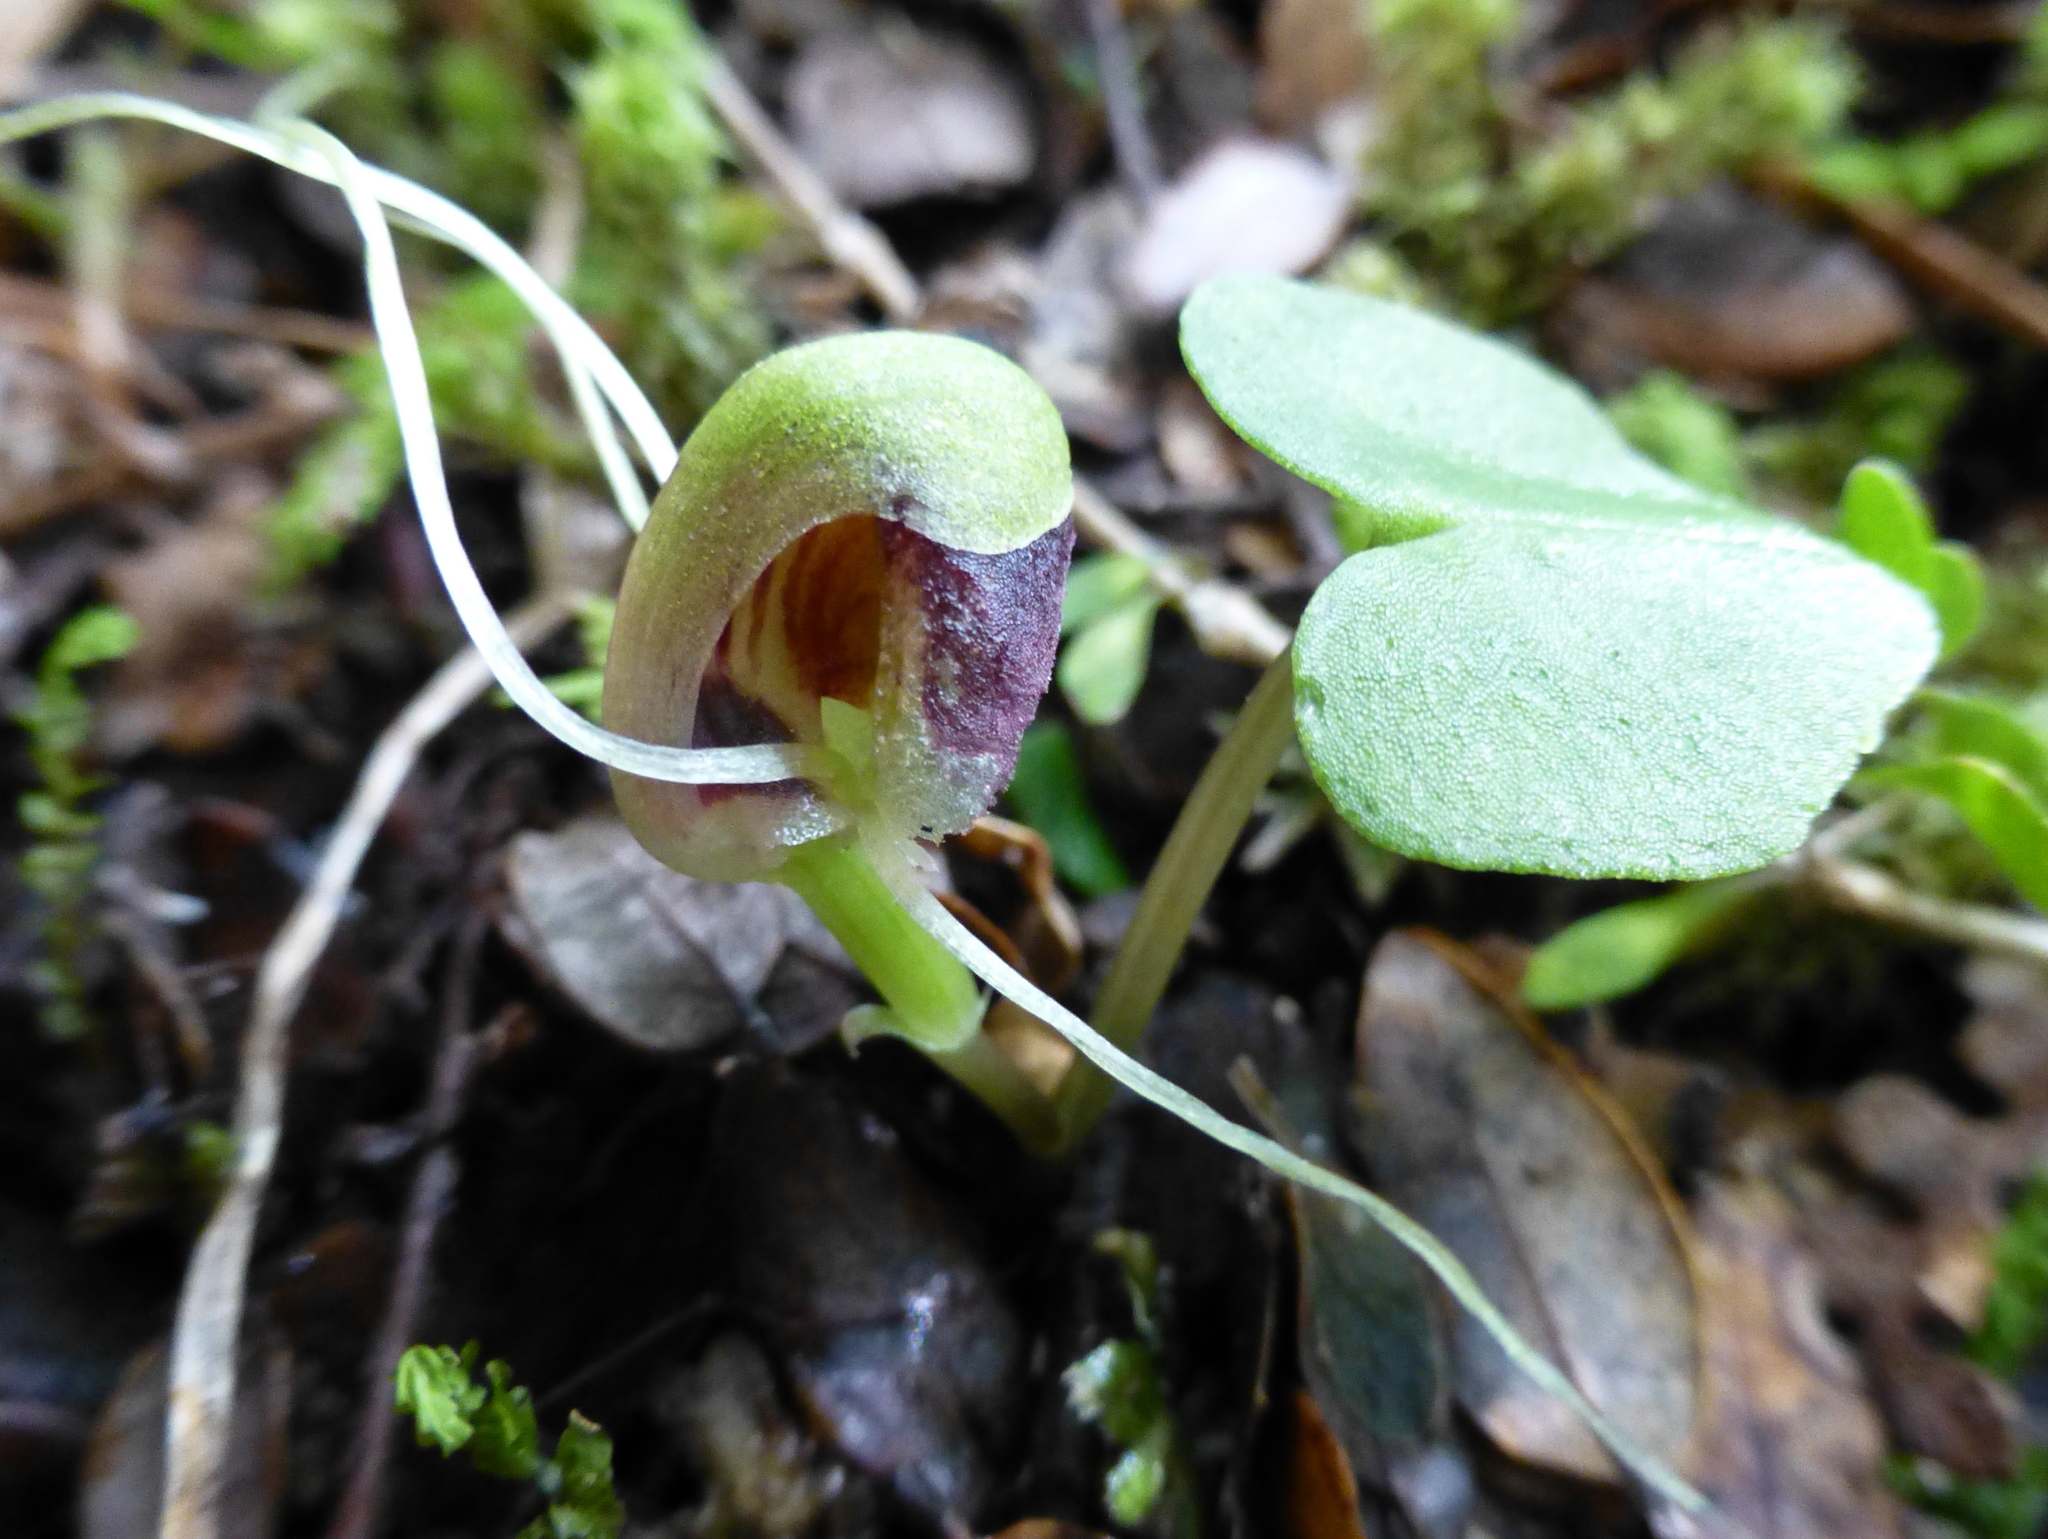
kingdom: Plantae
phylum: Tracheophyta
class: Liliopsida
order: Asparagales
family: Orchidaceae
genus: Corybas
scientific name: Corybas vitreus
